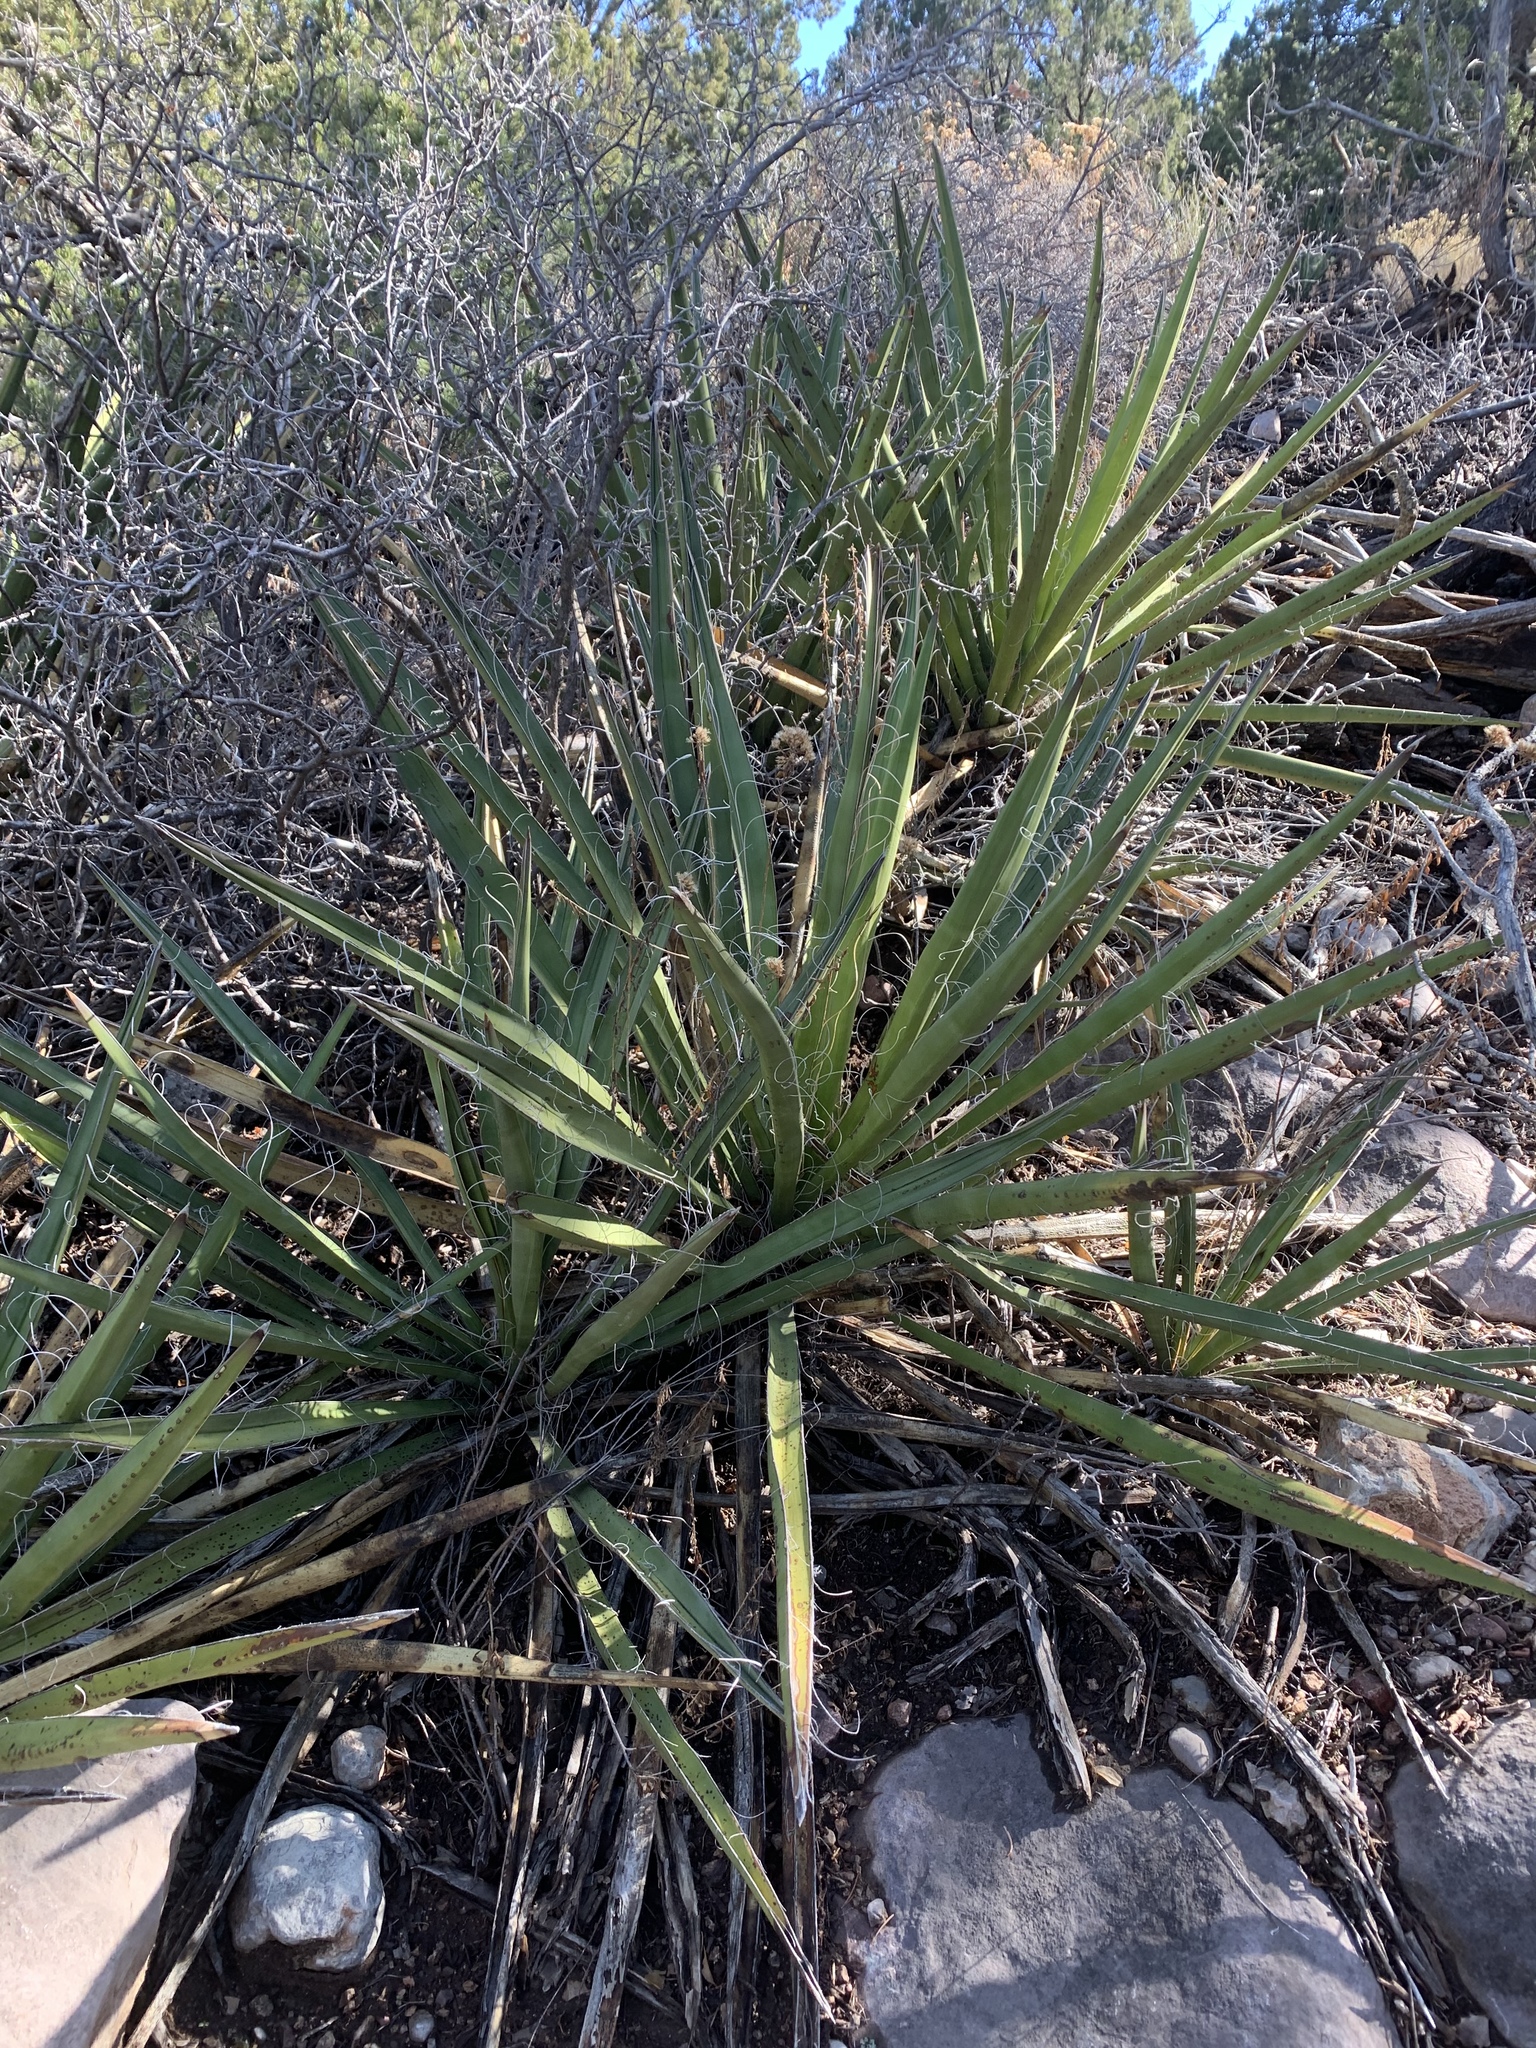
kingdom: Plantae
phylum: Tracheophyta
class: Liliopsida
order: Asparagales
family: Asparagaceae
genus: Yucca
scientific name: Yucca baccata
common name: Banana yucca
